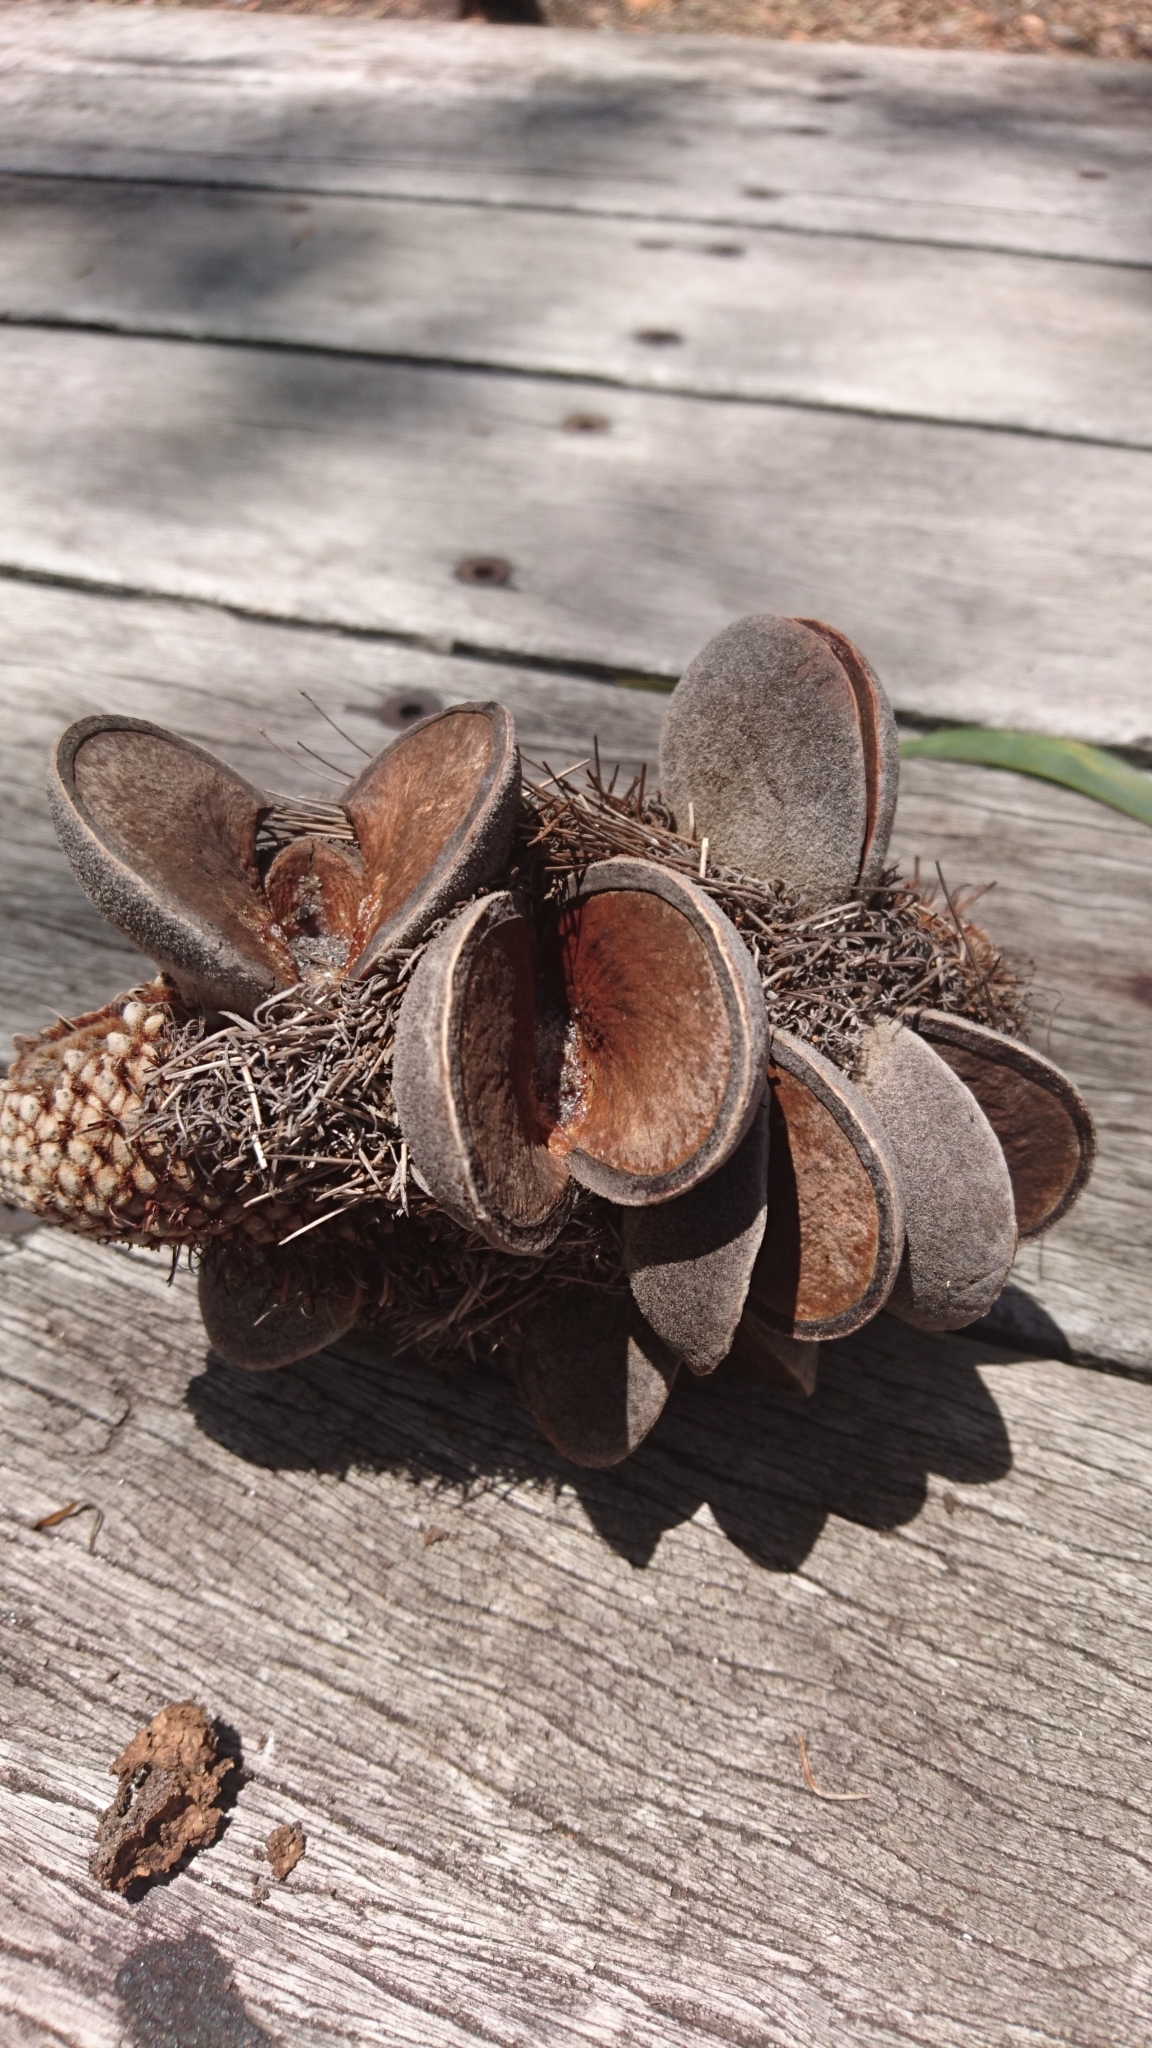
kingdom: Plantae
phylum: Tracheophyta
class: Magnoliopsida
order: Proteales
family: Proteaceae
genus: Banksia
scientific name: Banksia aemula
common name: Wallum banksia
